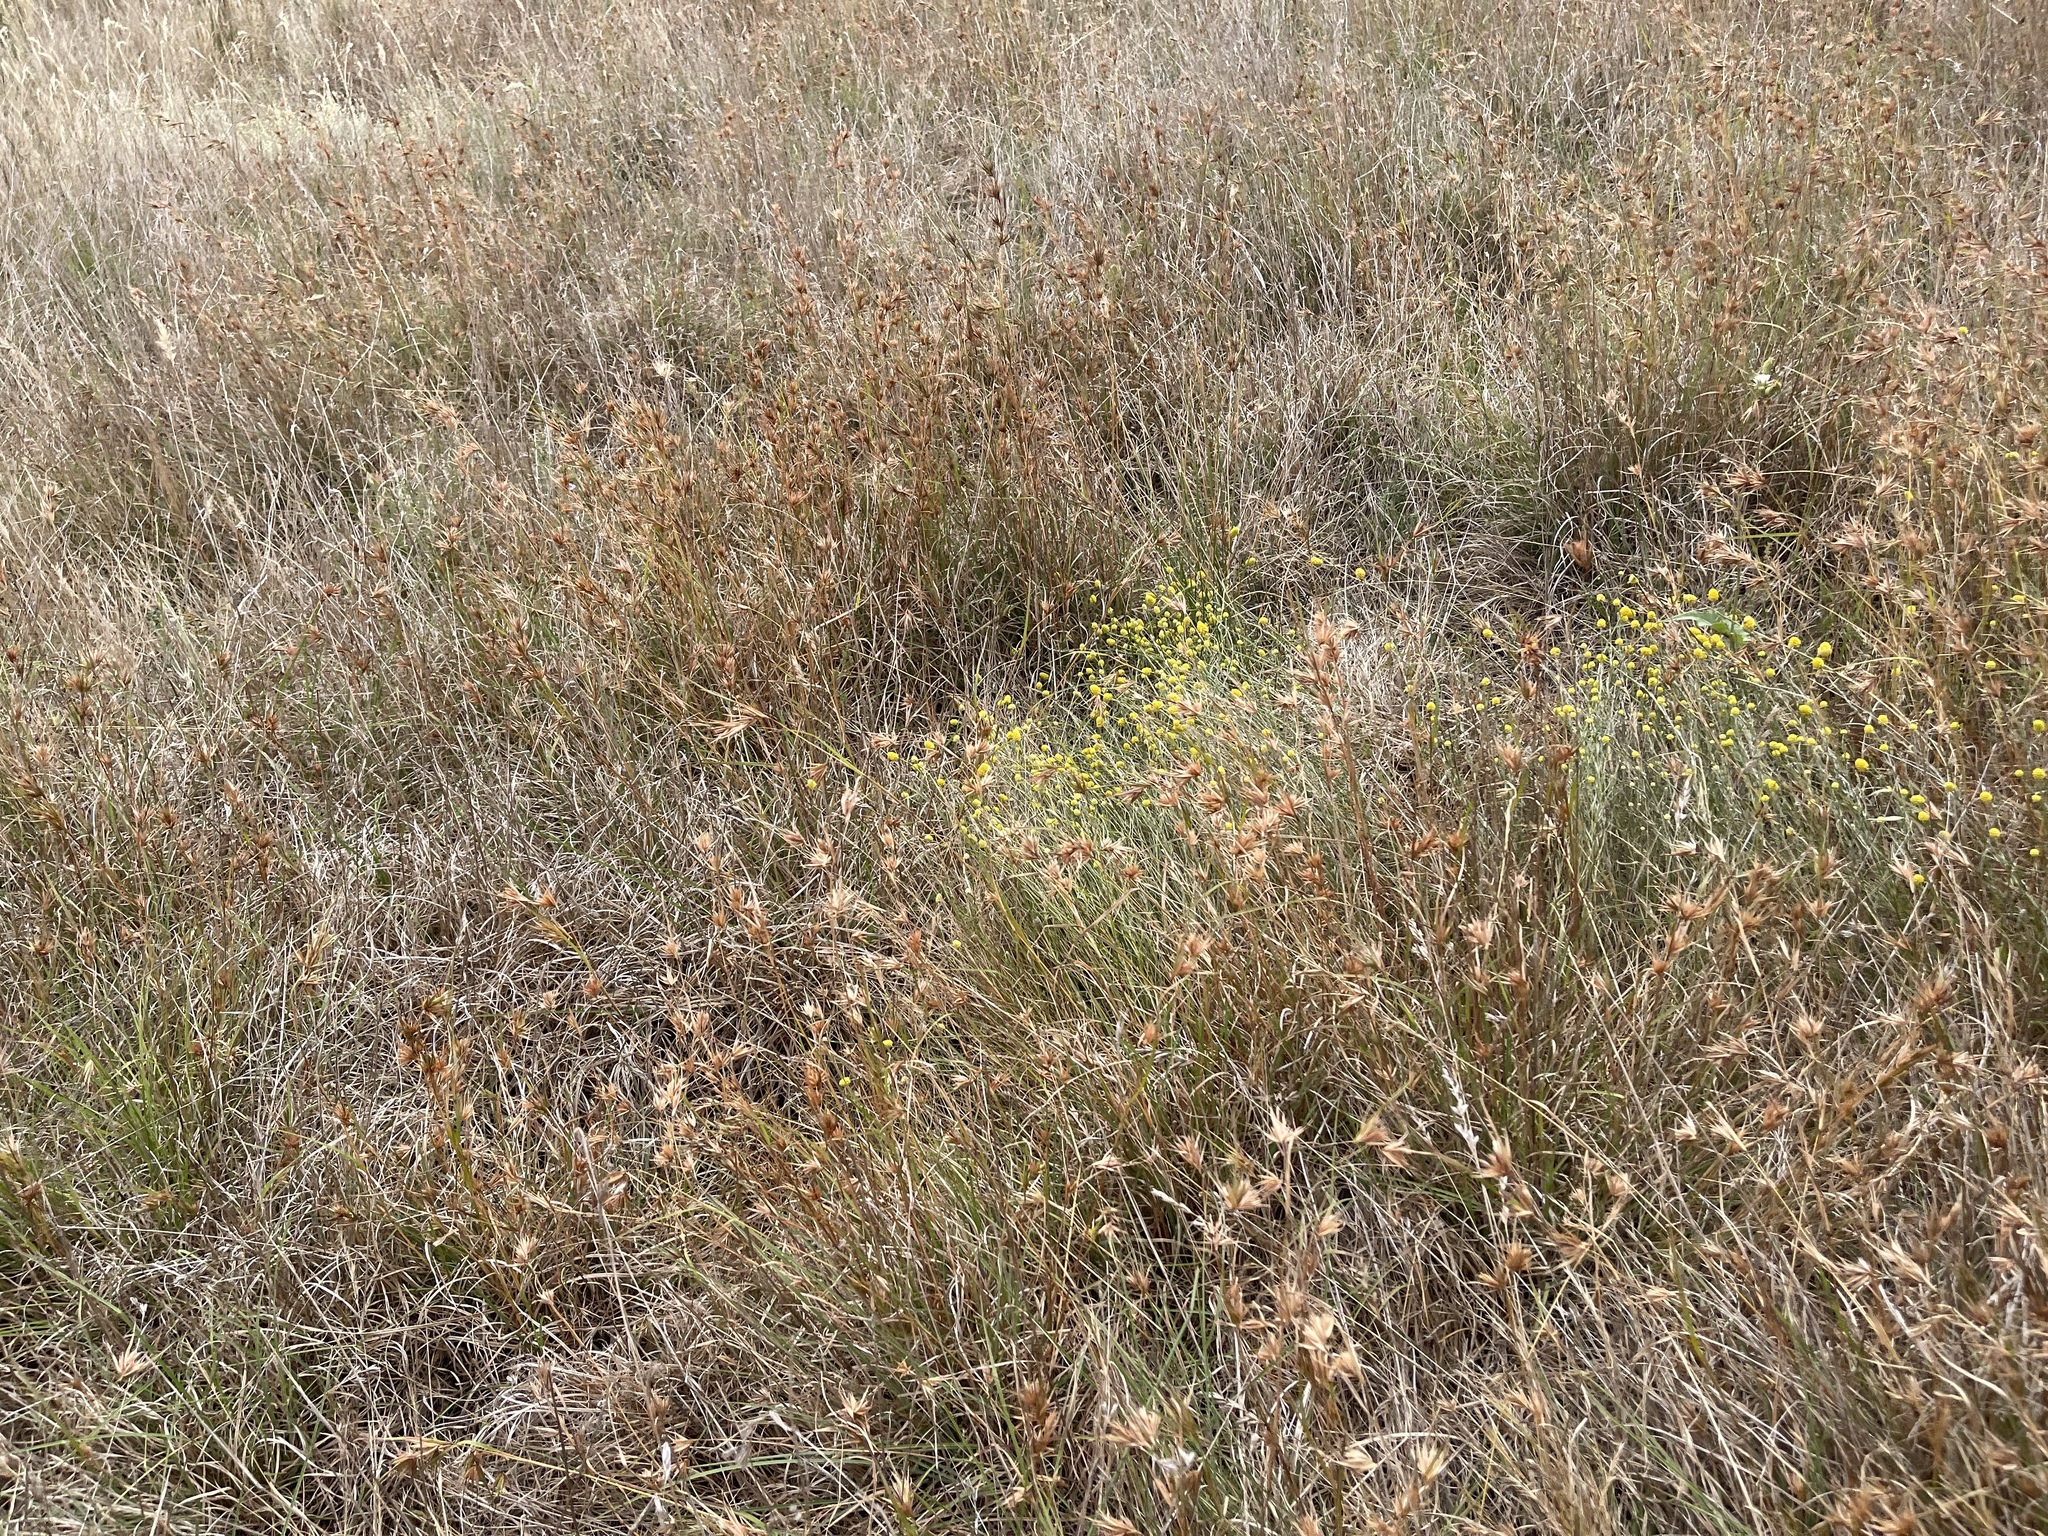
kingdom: Plantae
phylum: Tracheophyta
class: Liliopsida
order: Poales
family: Poaceae
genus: Themeda
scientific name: Themeda triandra
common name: Kangaroo grass
